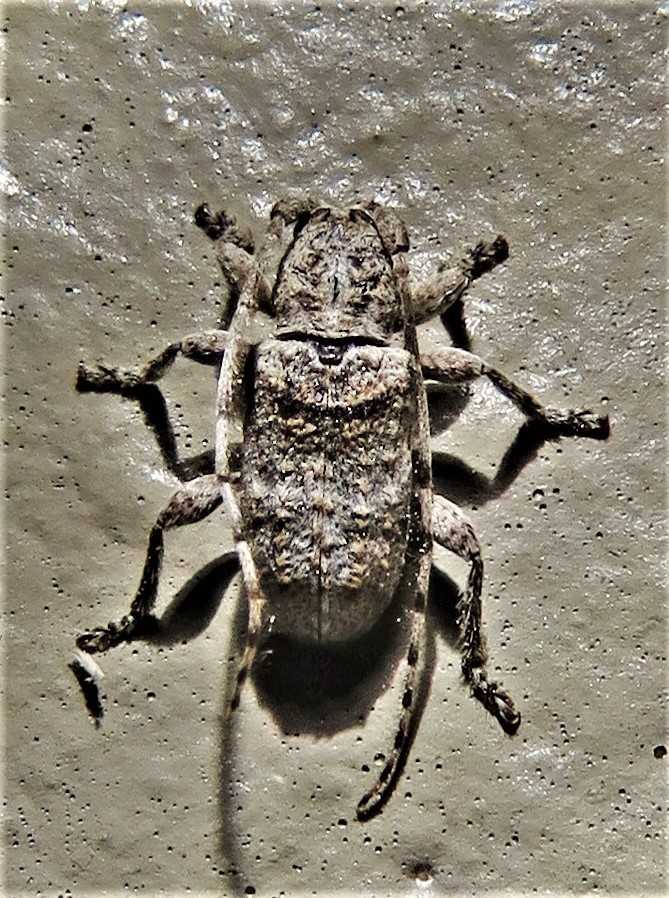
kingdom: Animalia
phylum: Arthropoda
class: Insecta
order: Coleoptera
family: Cerambycidae
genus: Ecyrus
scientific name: Ecyrus dasycerus
